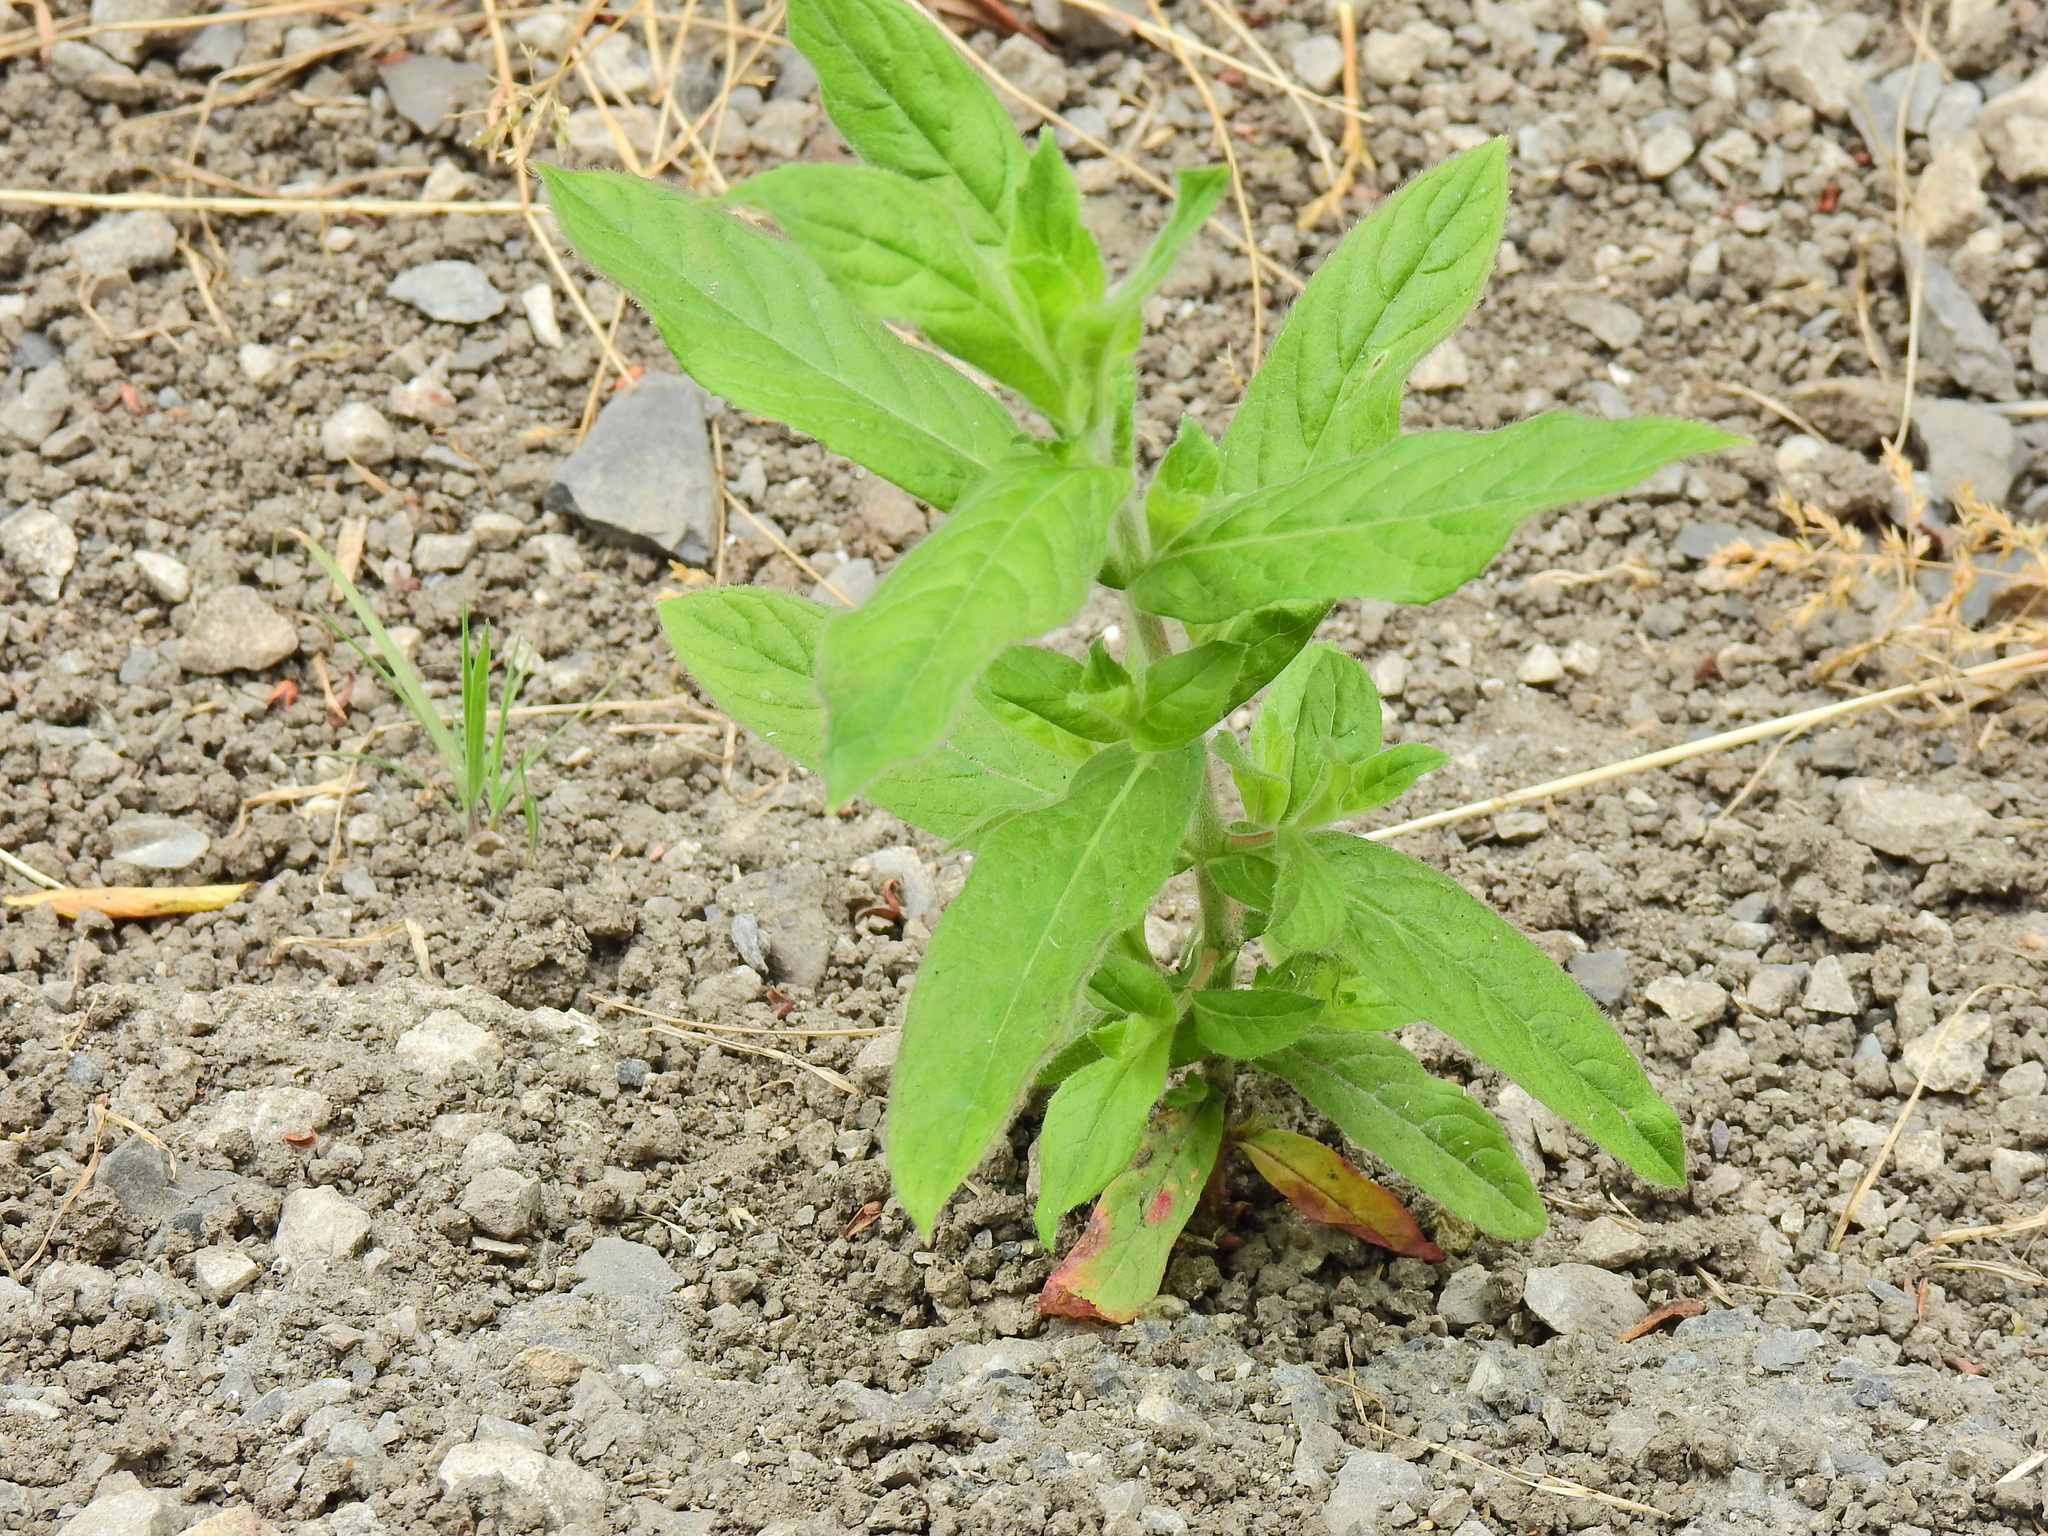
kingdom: Plantae
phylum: Tracheophyta
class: Magnoliopsida
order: Myrtales
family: Onagraceae
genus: Epilobium
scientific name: Epilobium hirsutum
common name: Great willowherb
